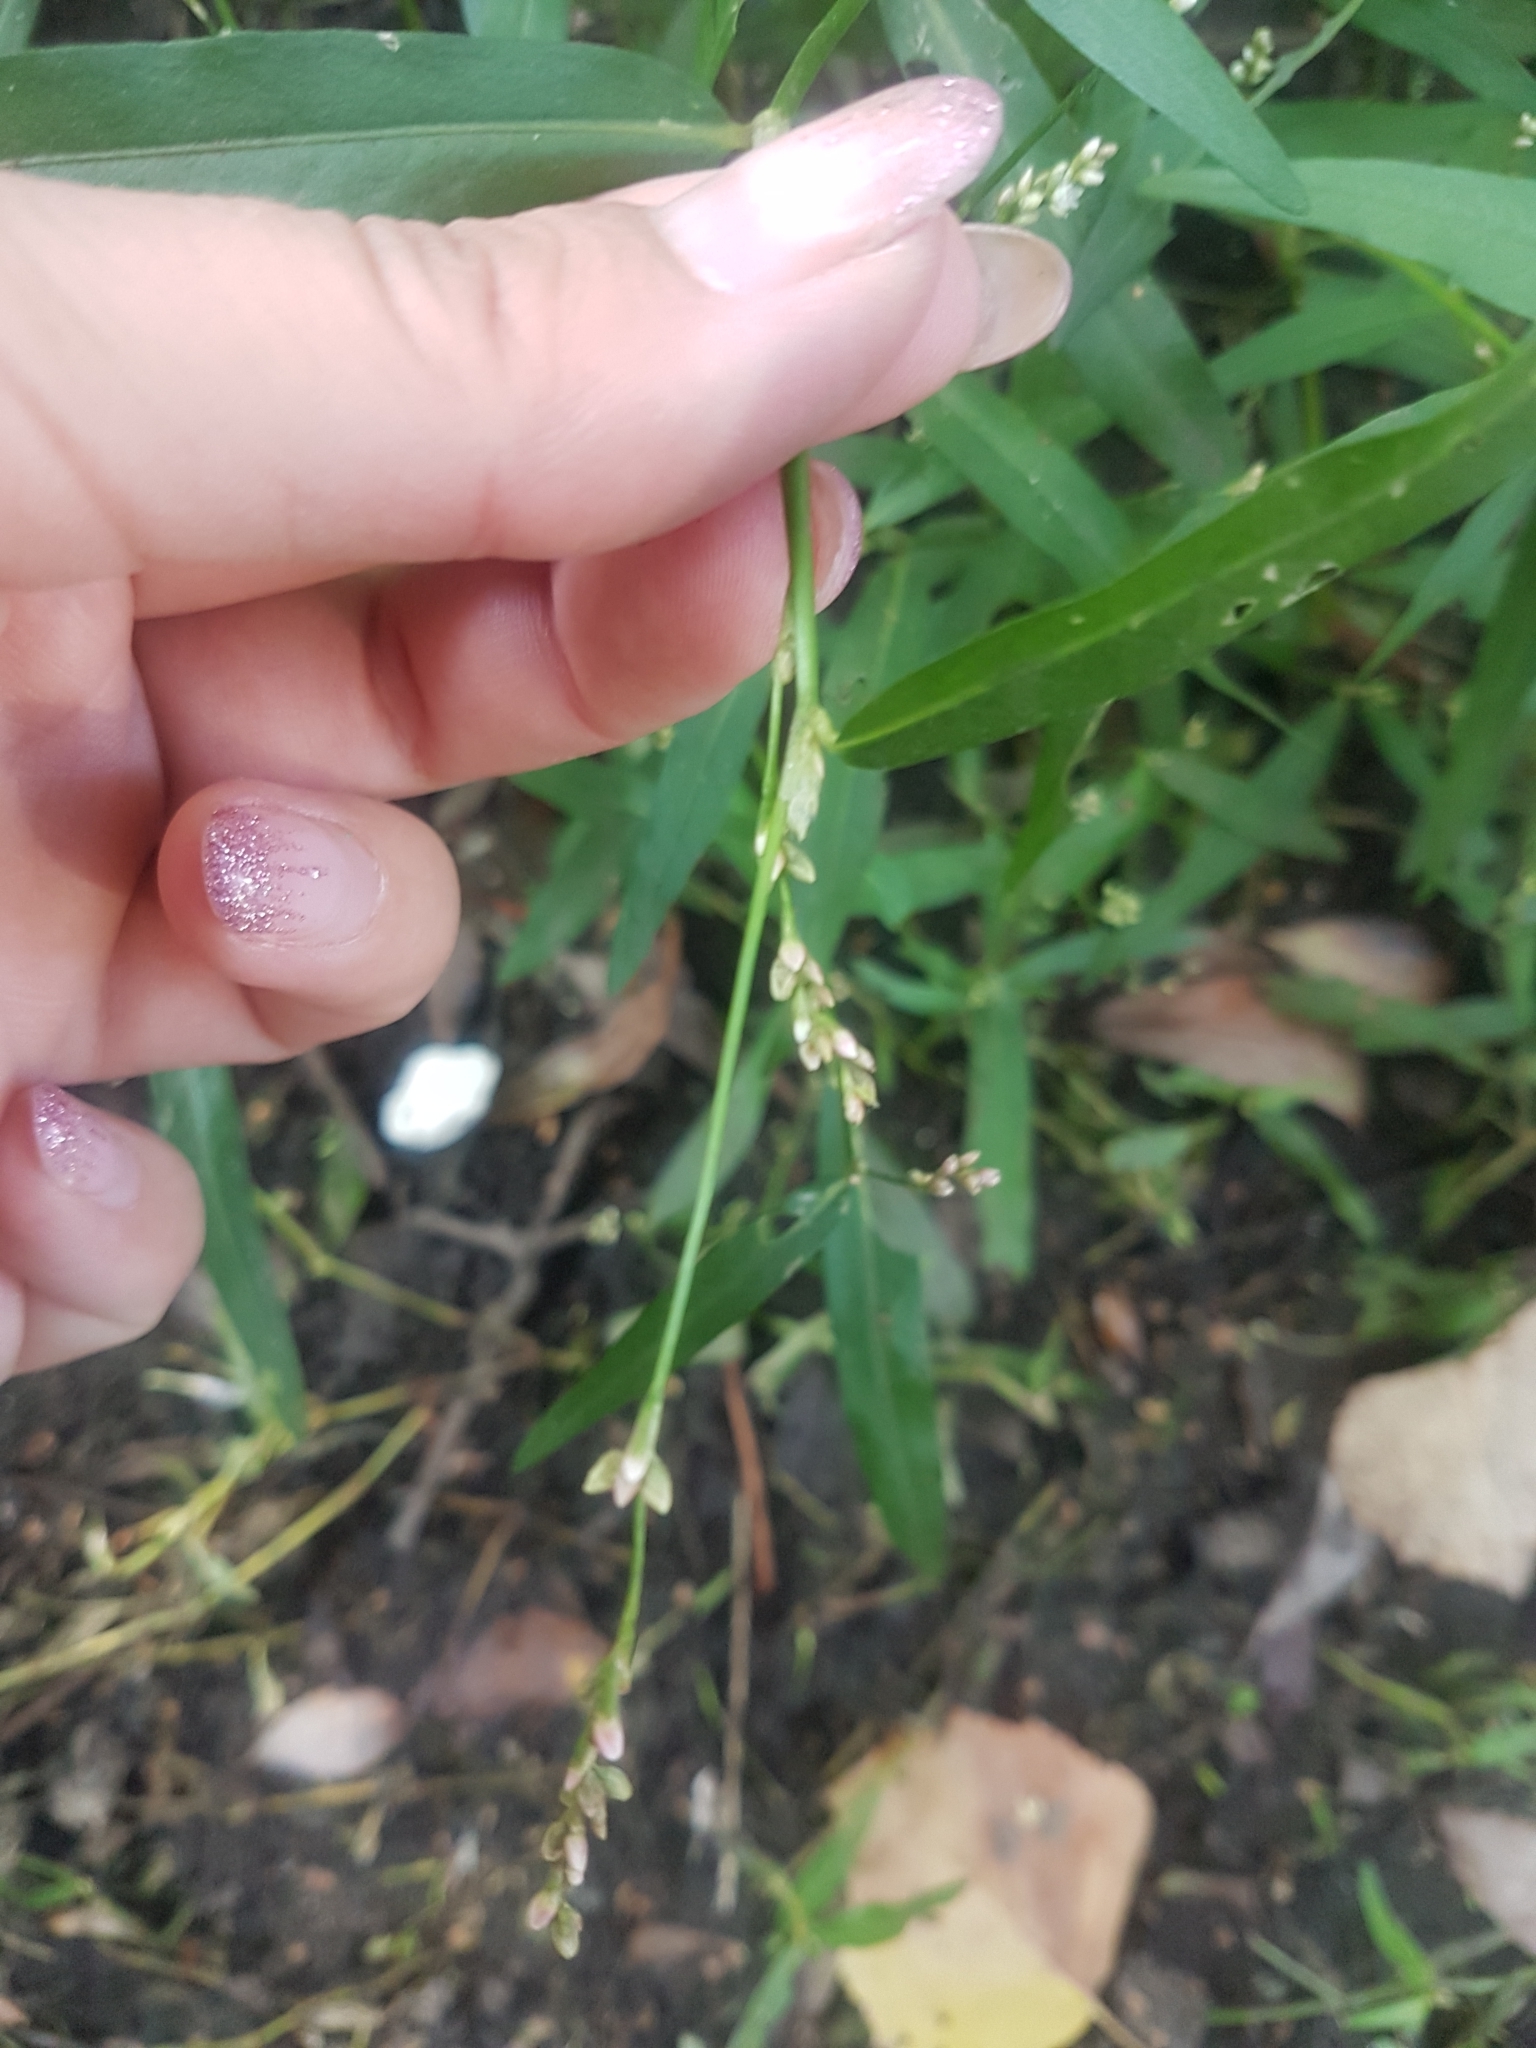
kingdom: Plantae
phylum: Tracheophyta
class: Magnoliopsida
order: Caryophyllales
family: Polygonaceae
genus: Persicaria
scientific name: Persicaria minor
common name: Small water-pepper
